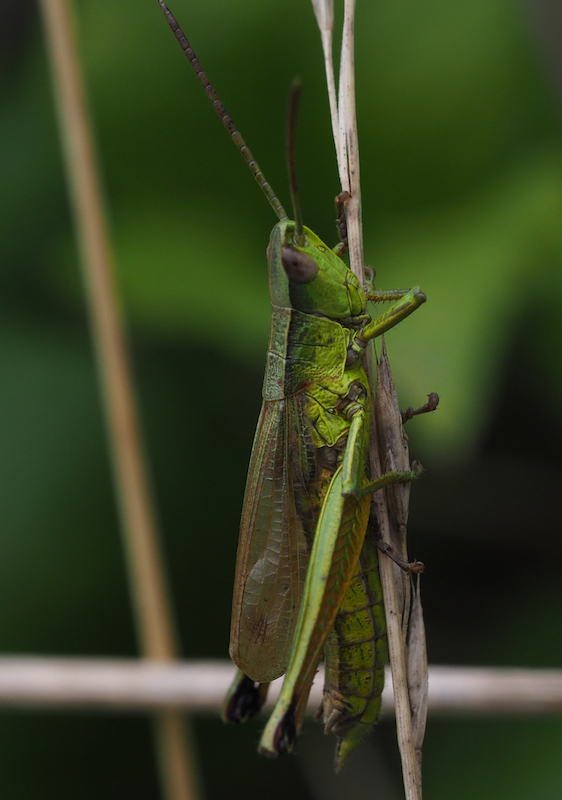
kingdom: Animalia
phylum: Arthropoda
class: Insecta
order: Orthoptera
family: Acrididae
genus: Chrysochraon
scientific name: Chrysochraon dispar
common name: Large gold grasshopper
